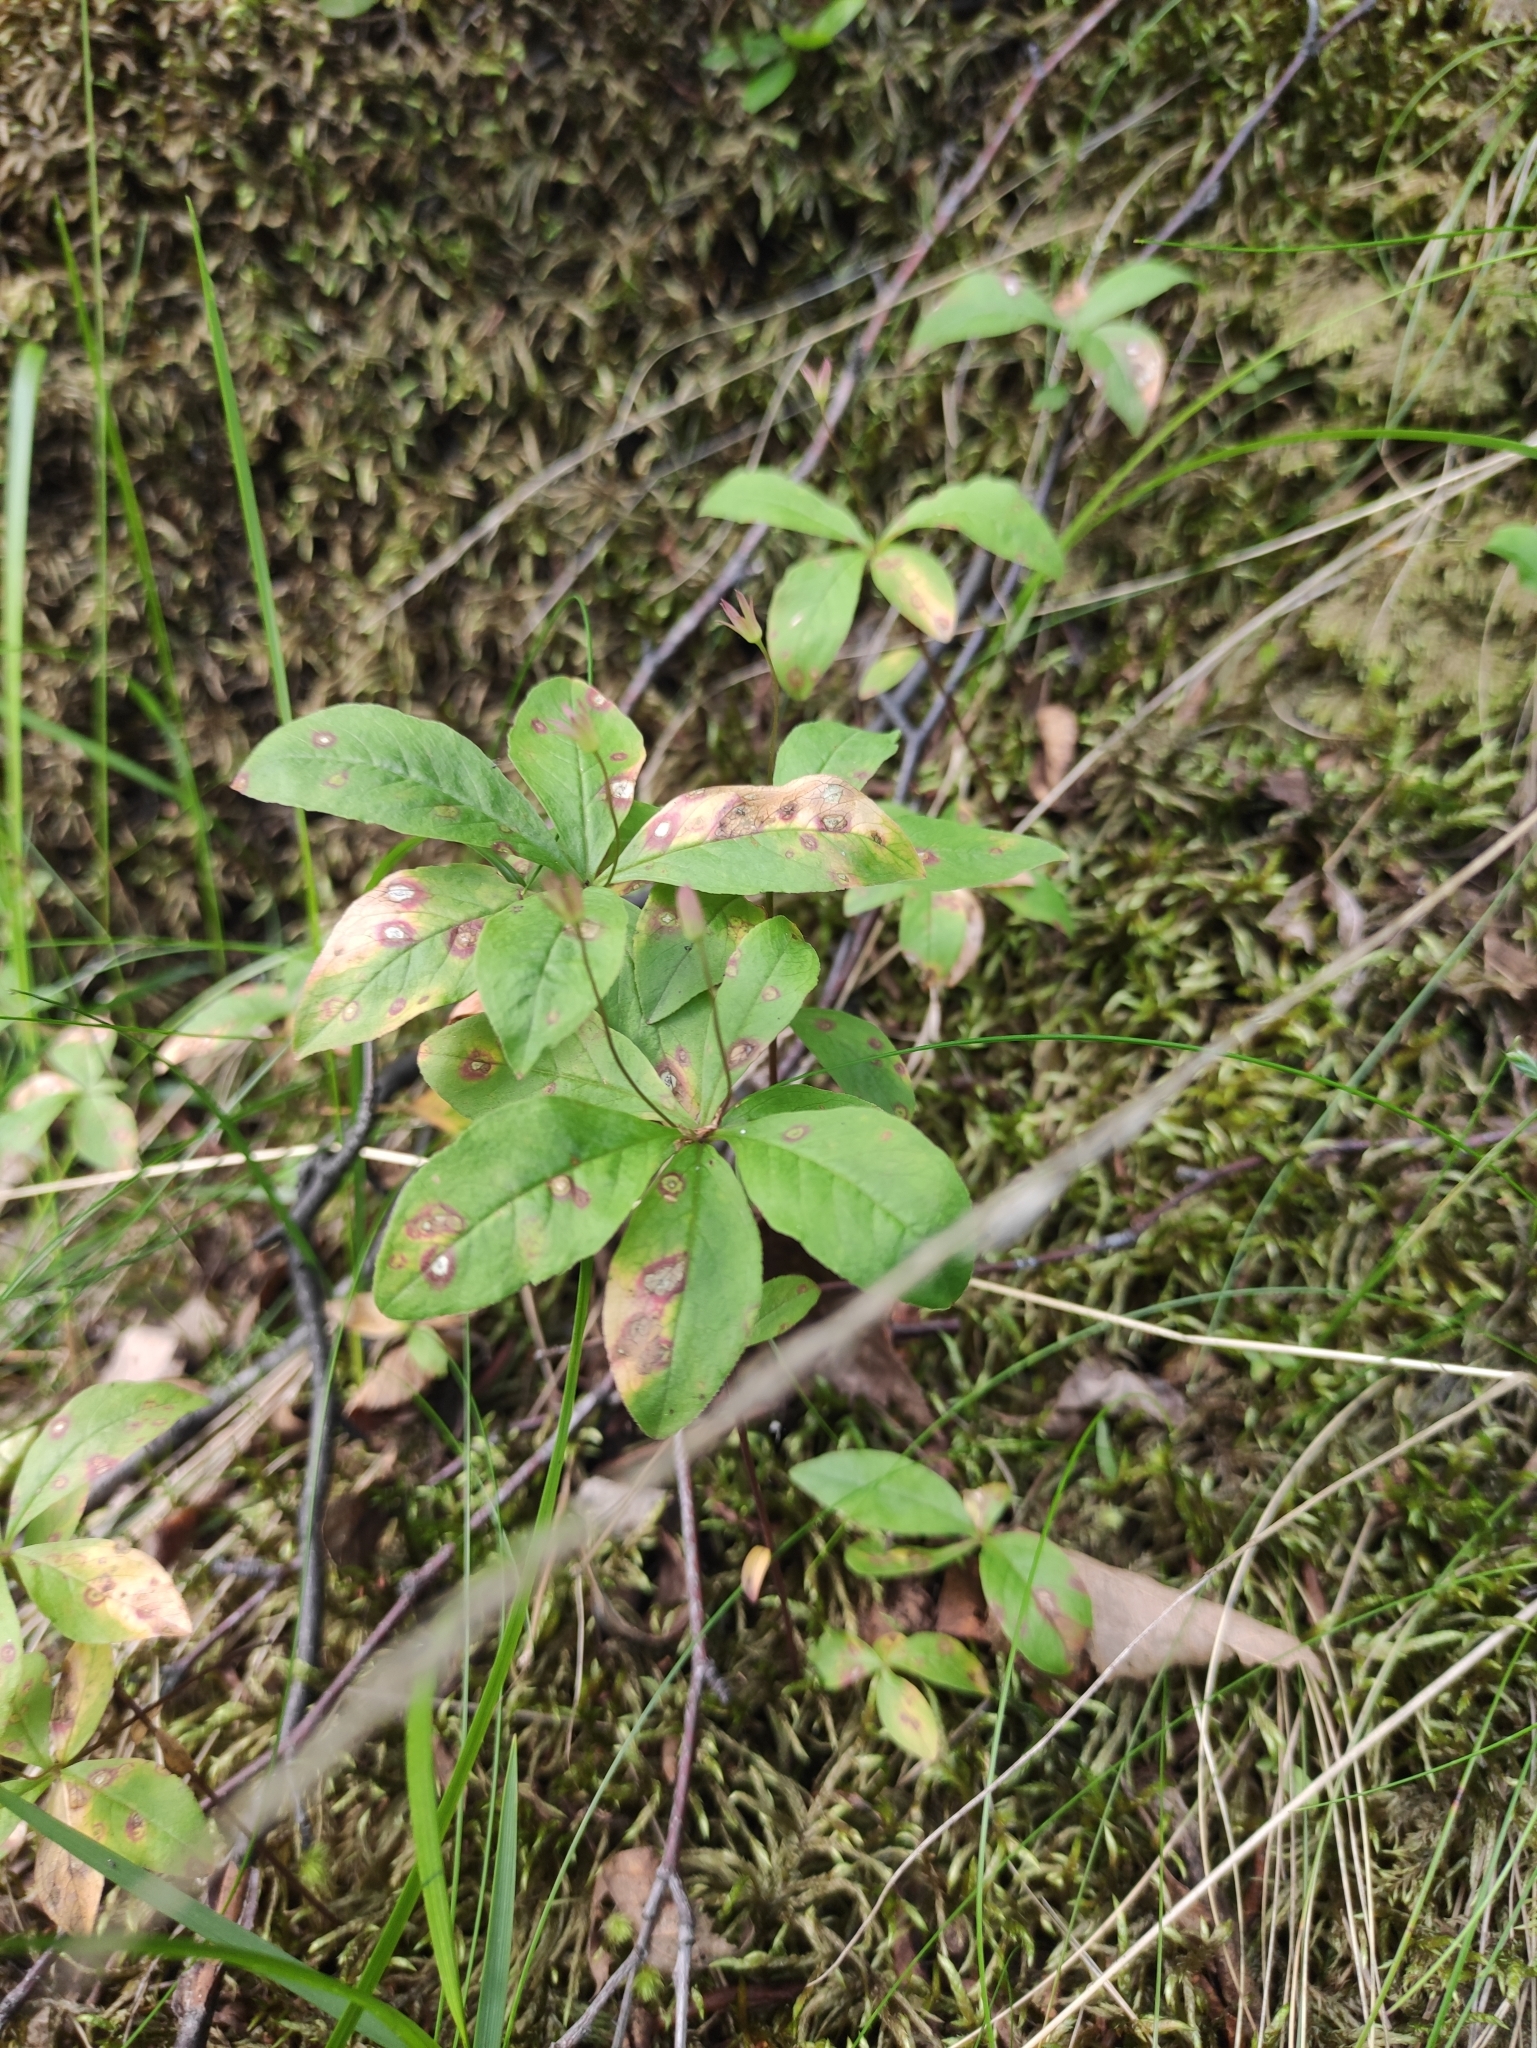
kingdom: Plantae
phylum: Tracheophyta
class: Magnoliopsida
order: Ericales
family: Primulaceae
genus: Lysimachia
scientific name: Lysimachia europaea
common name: Arctic starflower
